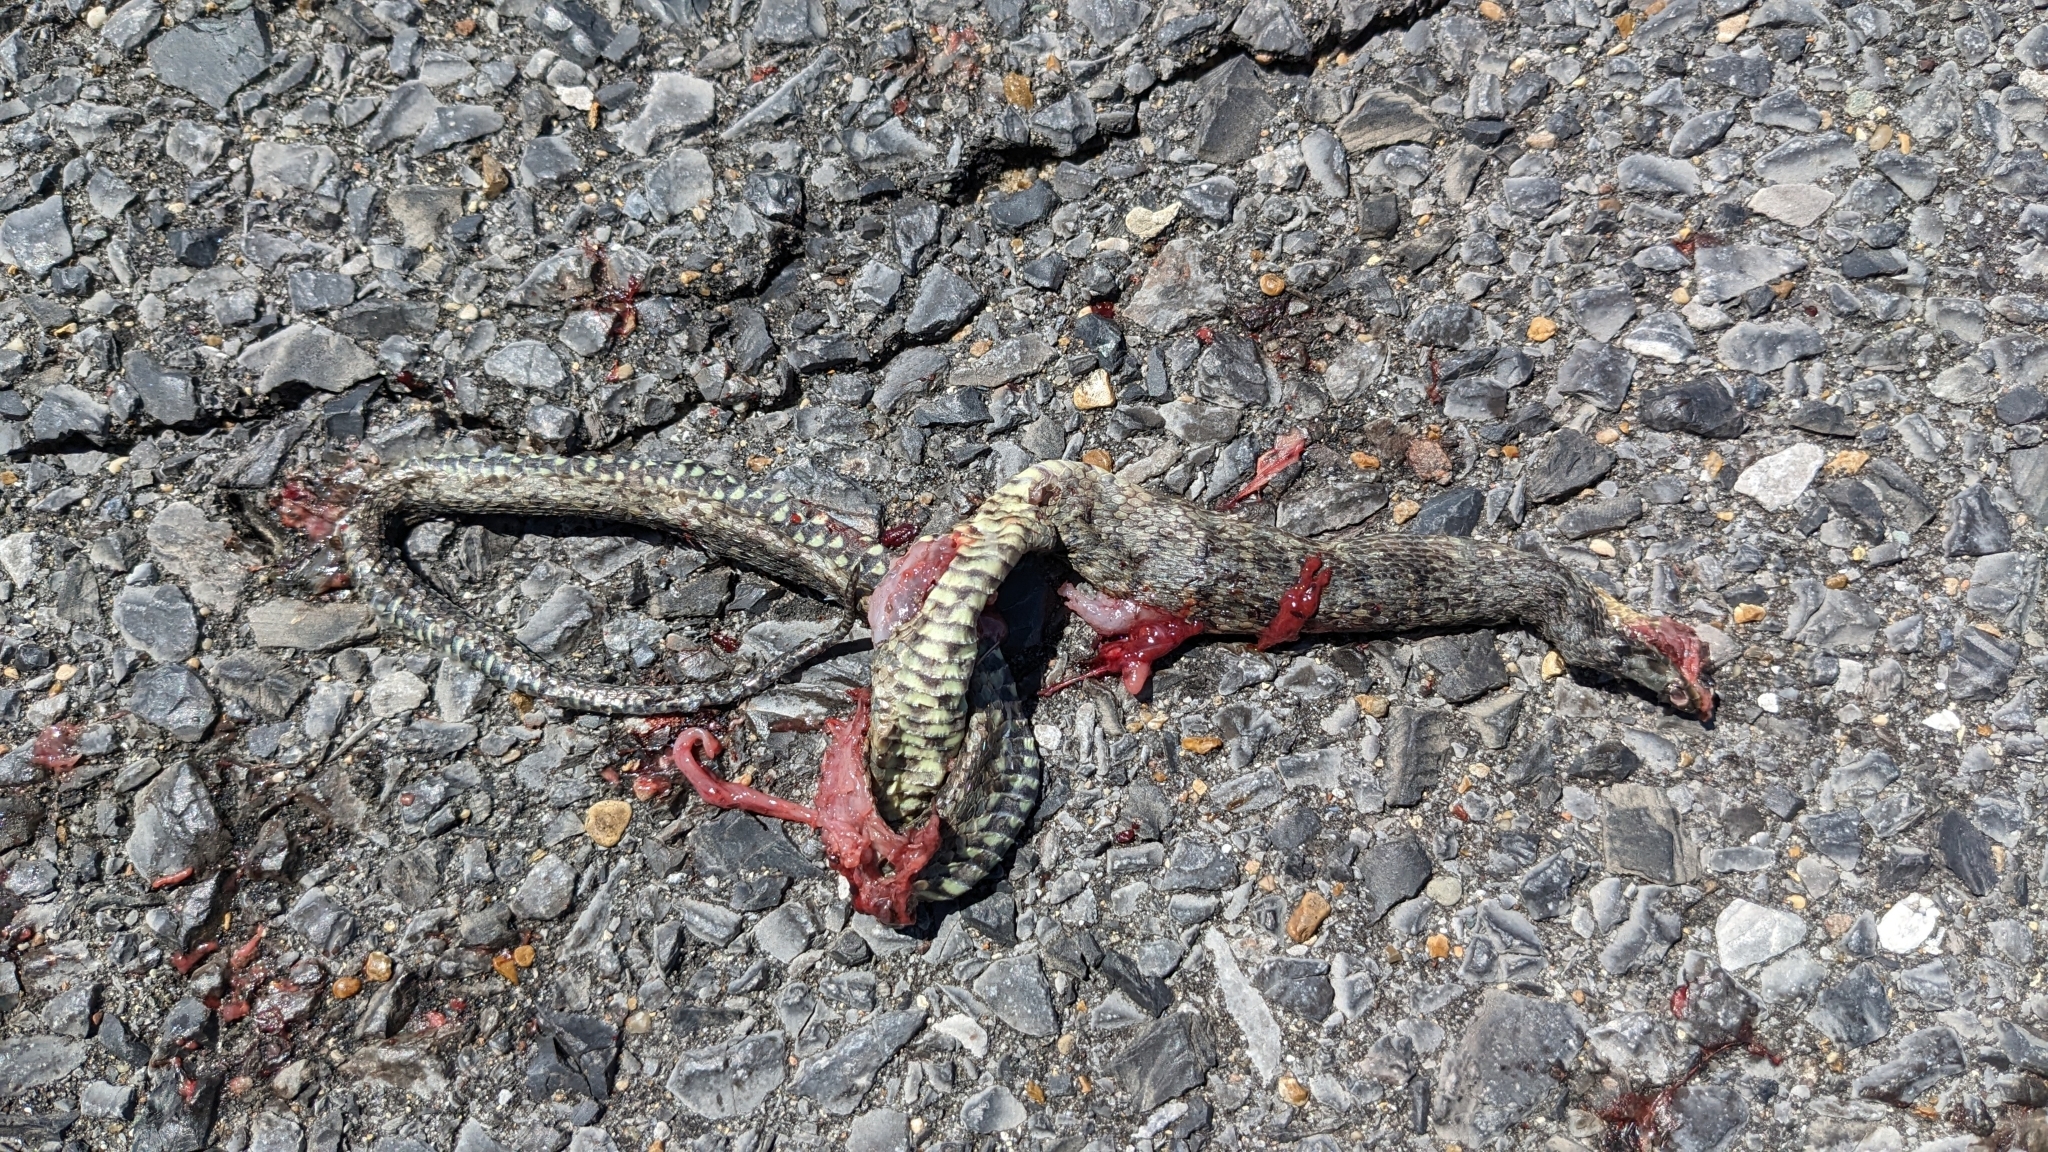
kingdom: Animalia
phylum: Chordata
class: Squamata
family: Colubridae
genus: Nerodia
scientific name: Nerodia cyclopion
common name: Mississippi green water snake
